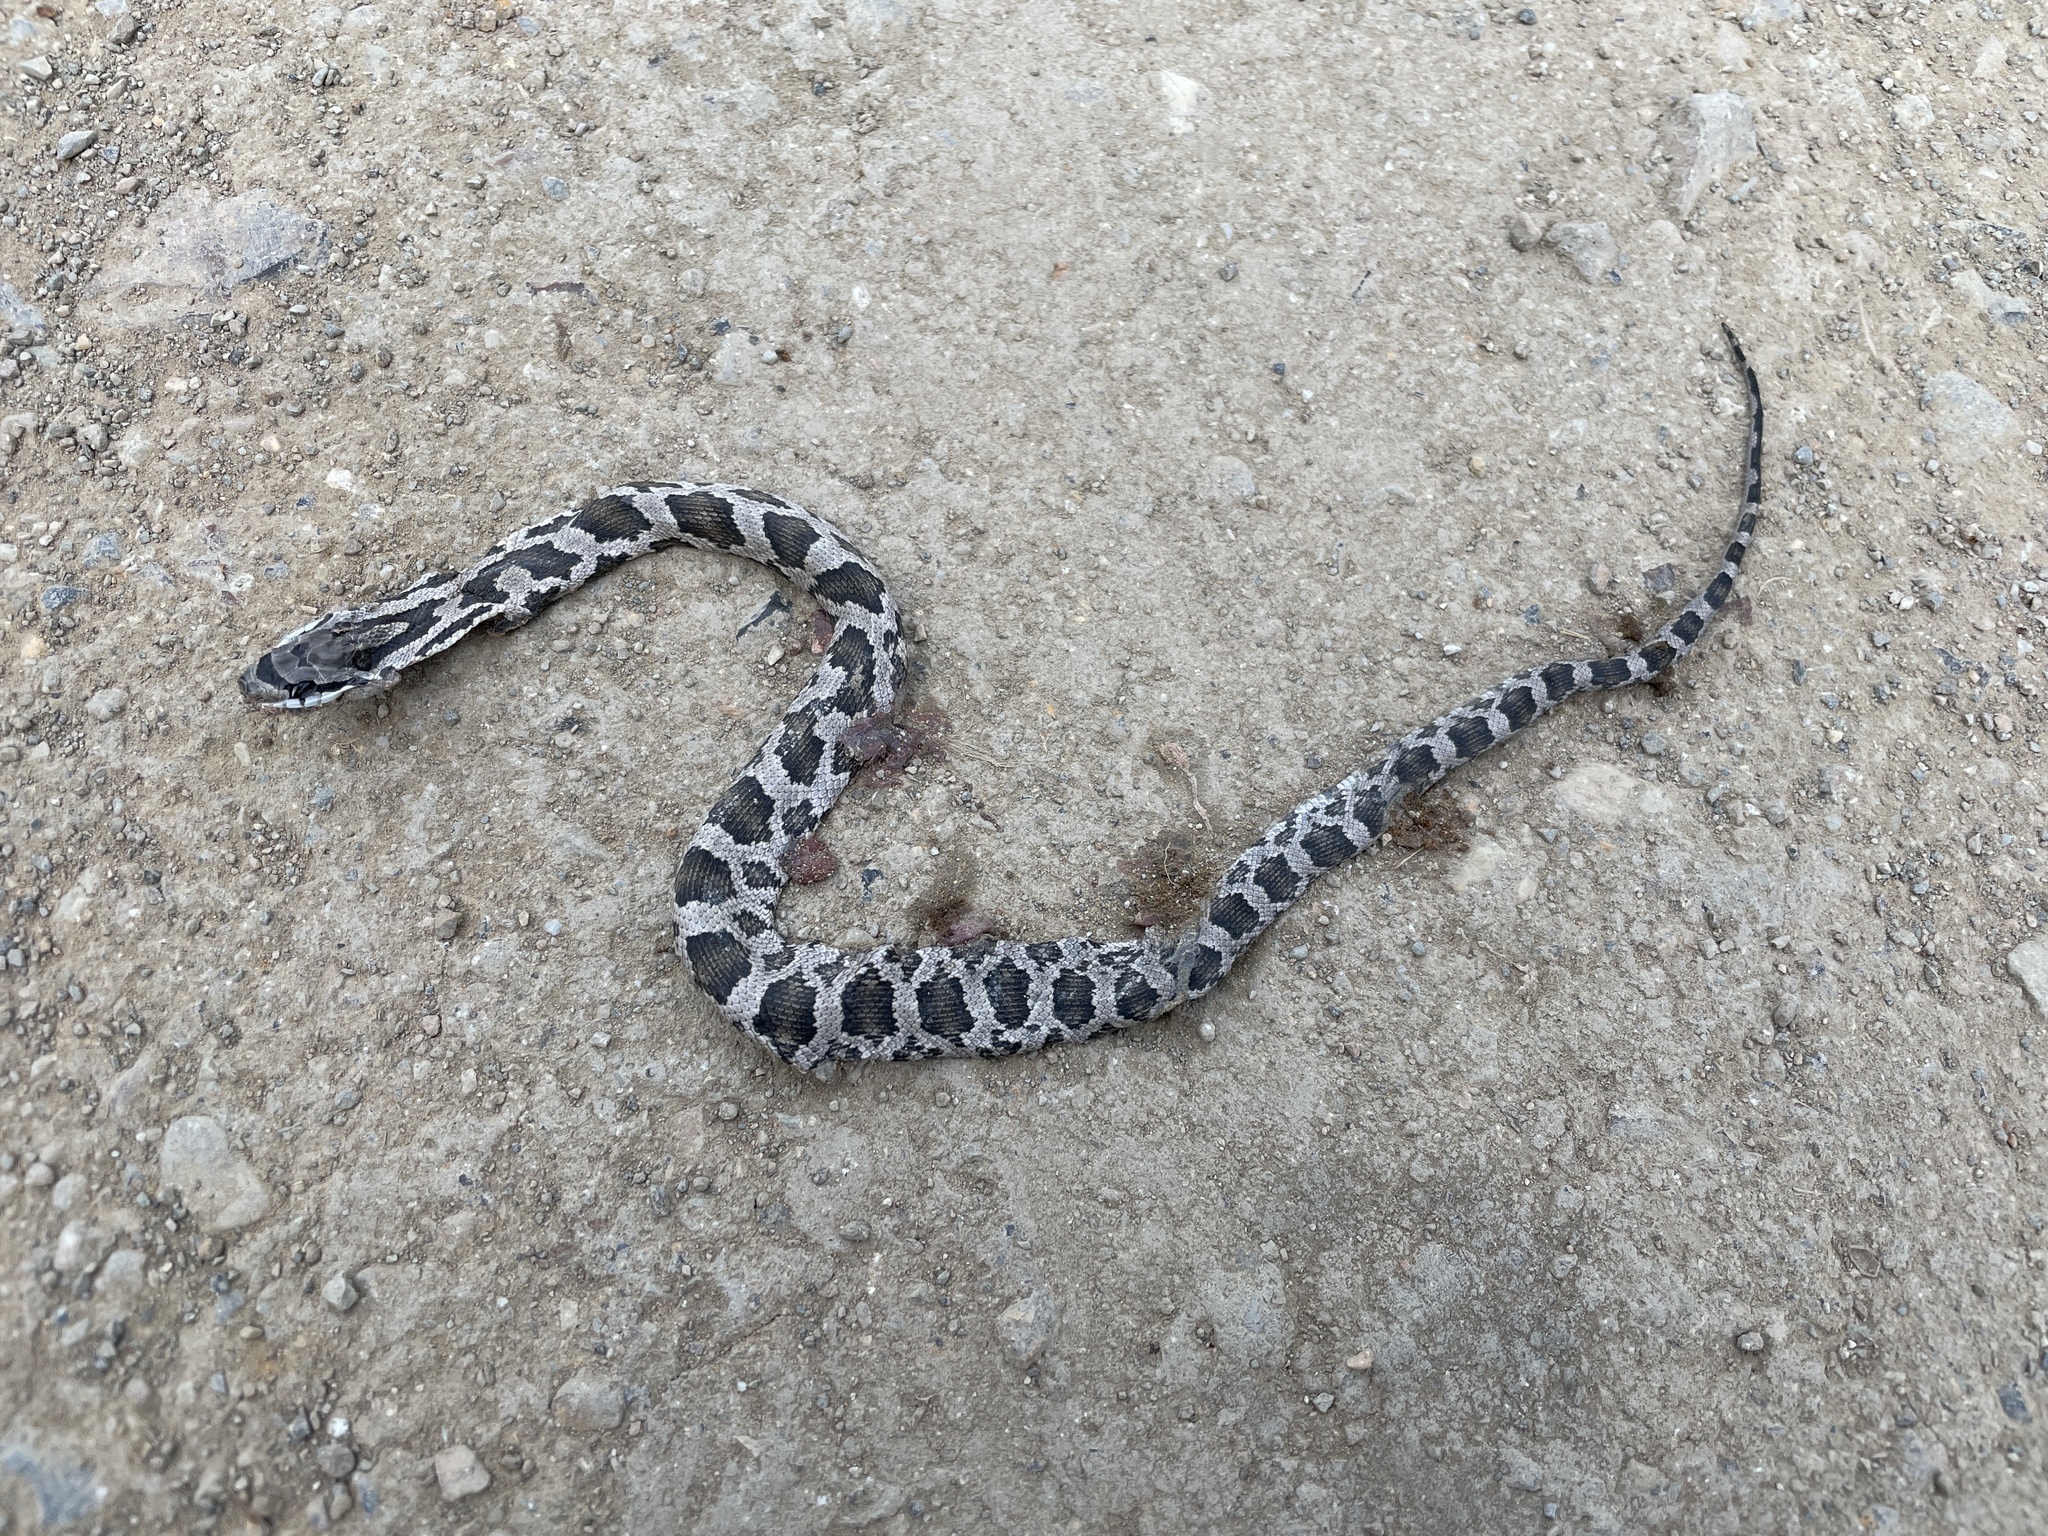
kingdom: Animalia
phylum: Chordata
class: Squamata
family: Colubridae
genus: Pantherophis
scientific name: Pantherophis obsoletus
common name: Black rat snake
